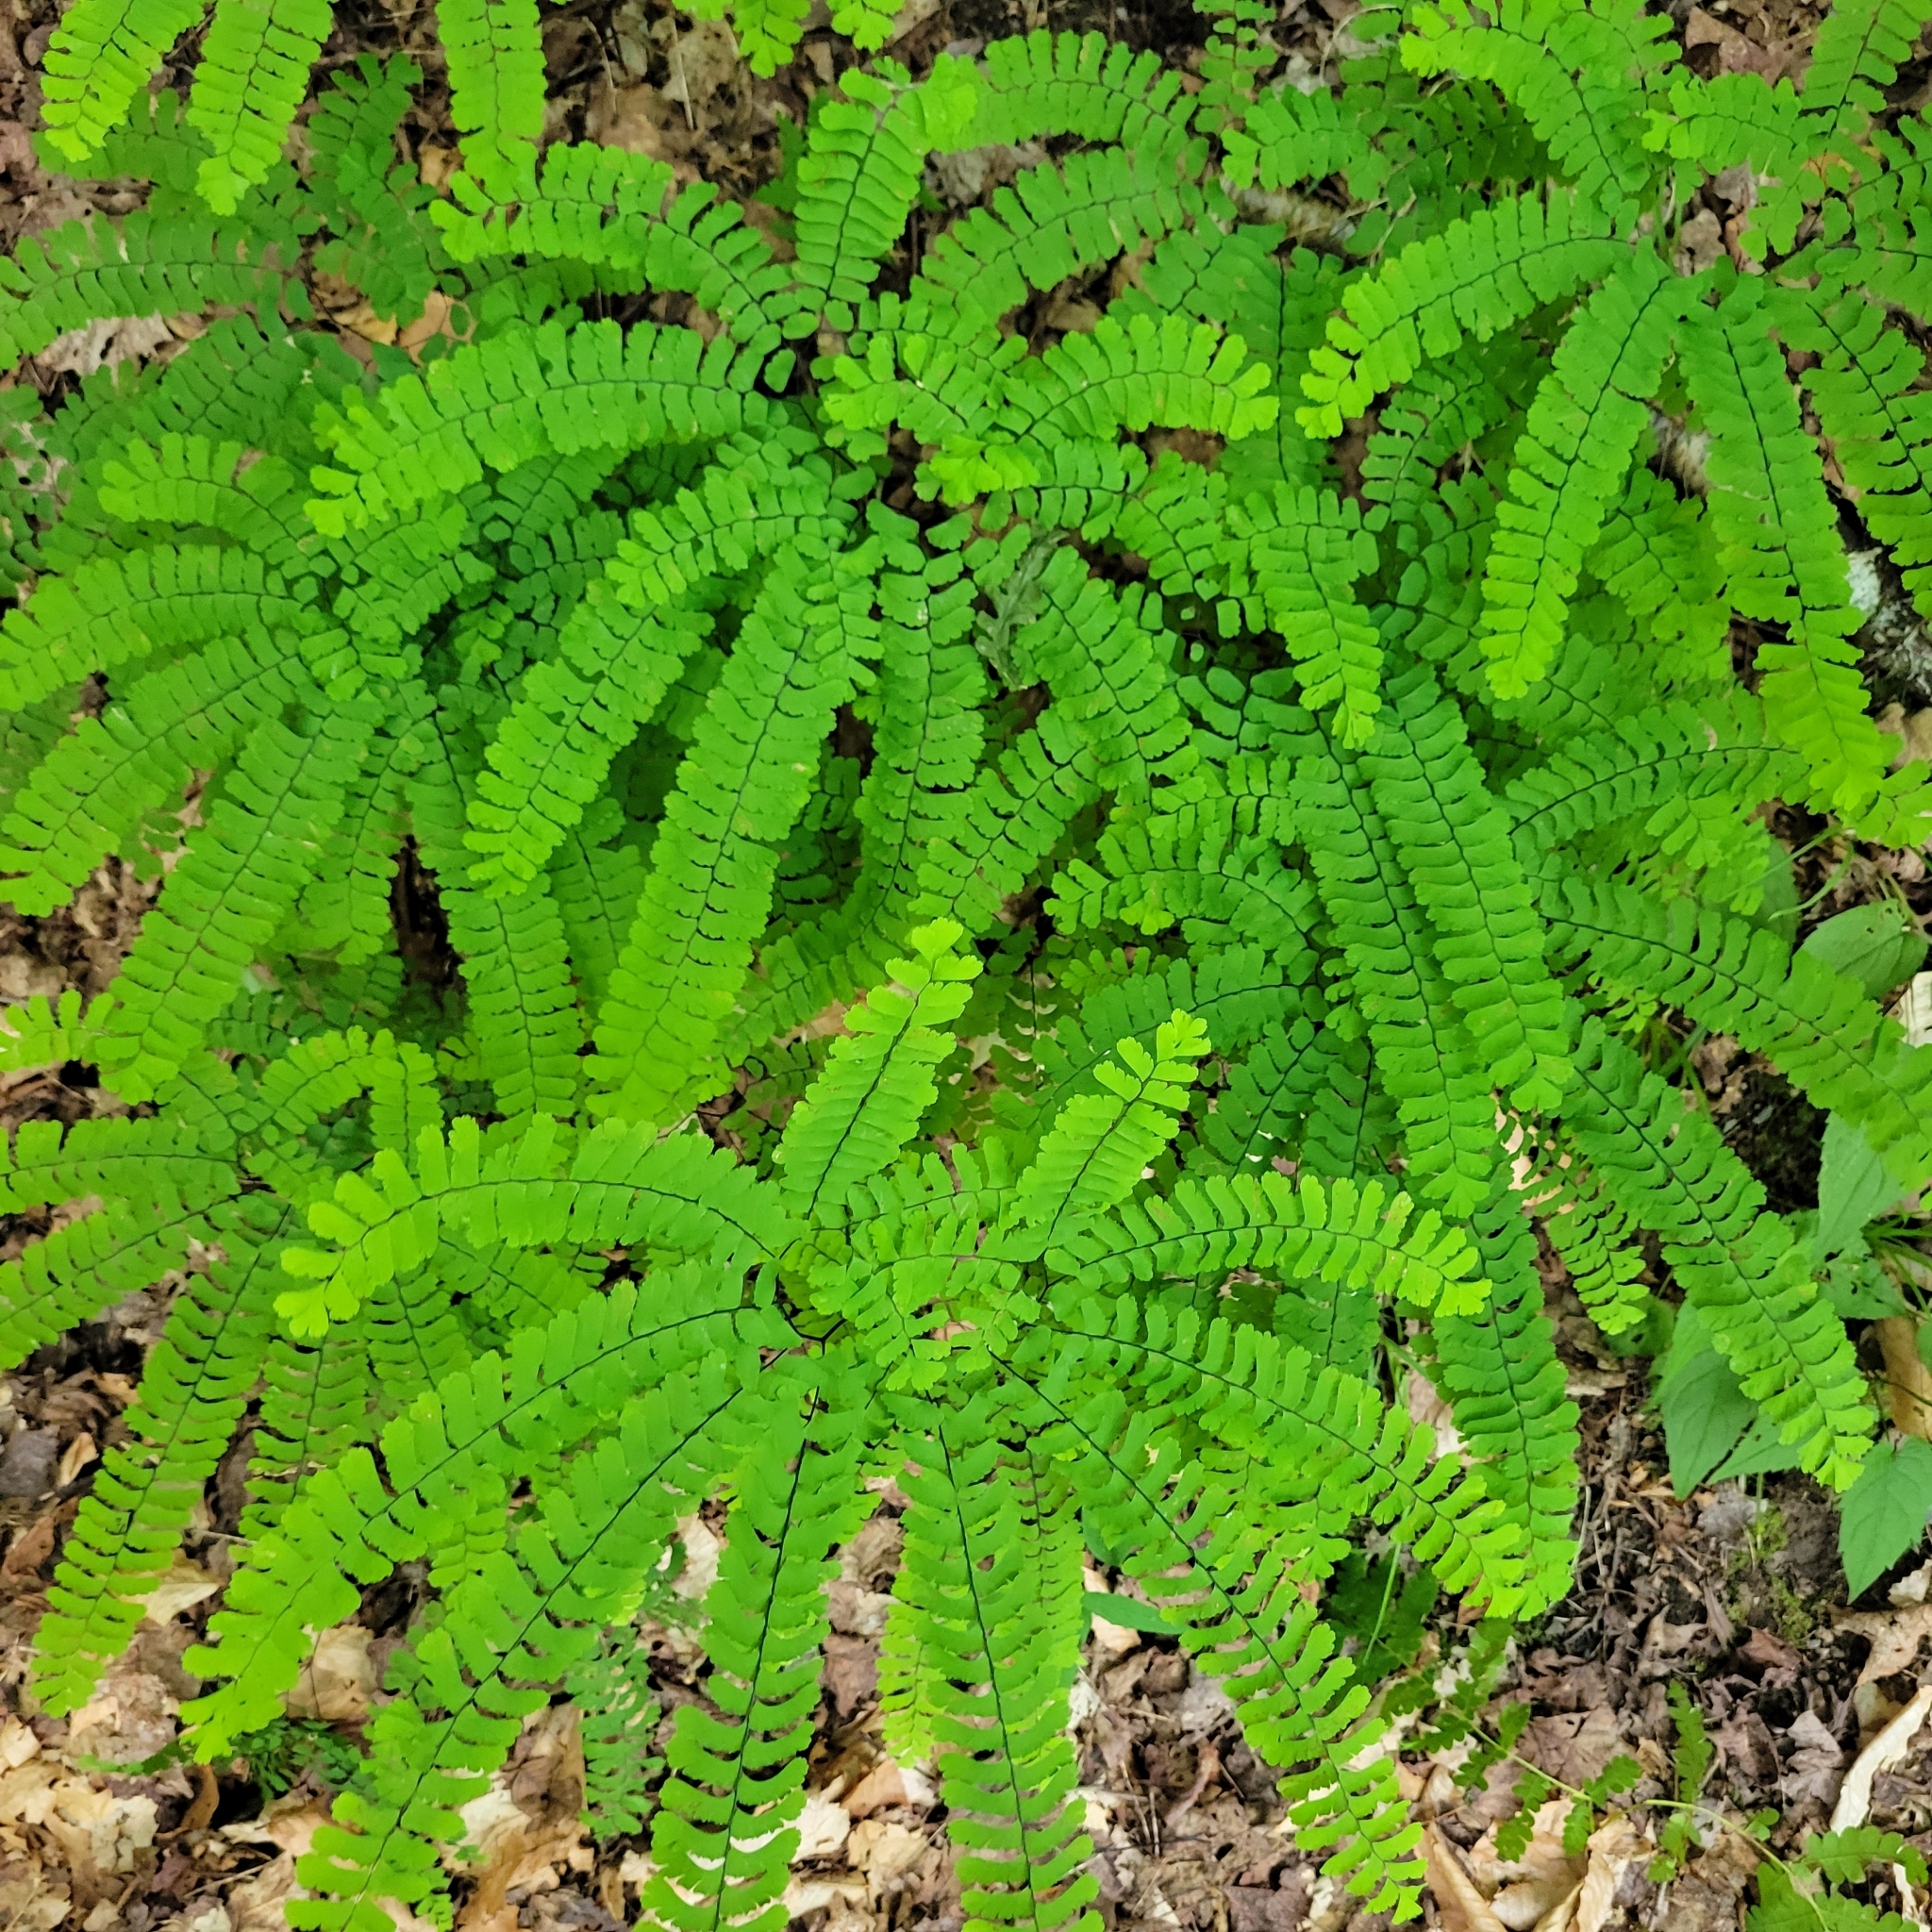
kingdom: Plantae
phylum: Tracheophyta
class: Polypodiopsida
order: Polypodiales
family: Pteridaceae
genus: Adiantum
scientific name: Adiantum pedatum
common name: Five-finger fern
